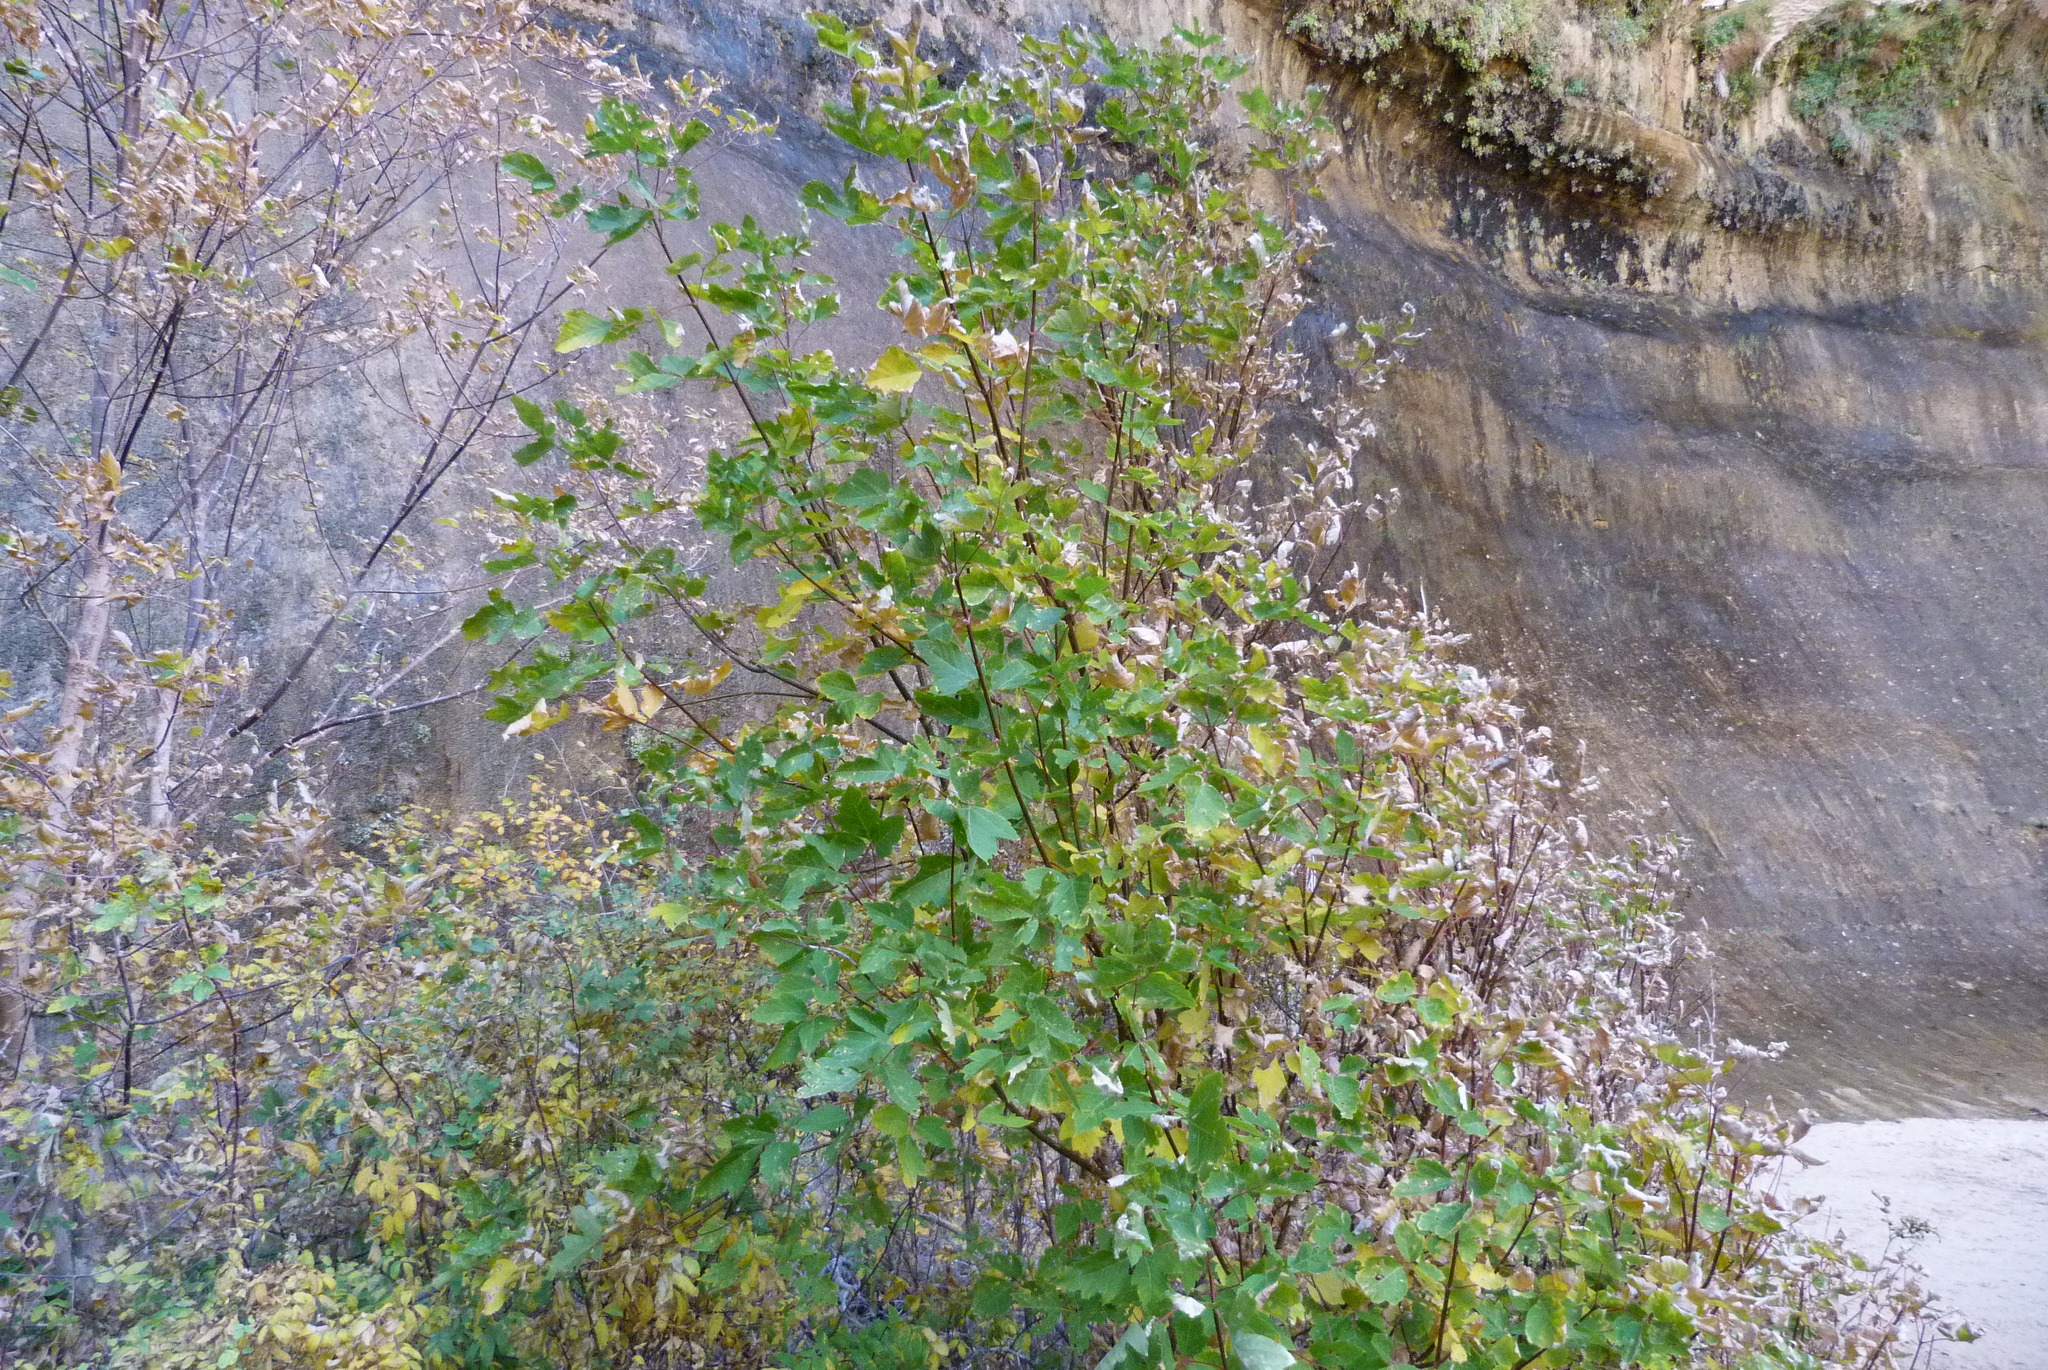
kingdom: Plantae
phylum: Tracheophyta
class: Magnoliopsida
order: Sapindales
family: Sapindaceae
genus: Acer
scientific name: Acer negundo
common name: Ashleaf maple
